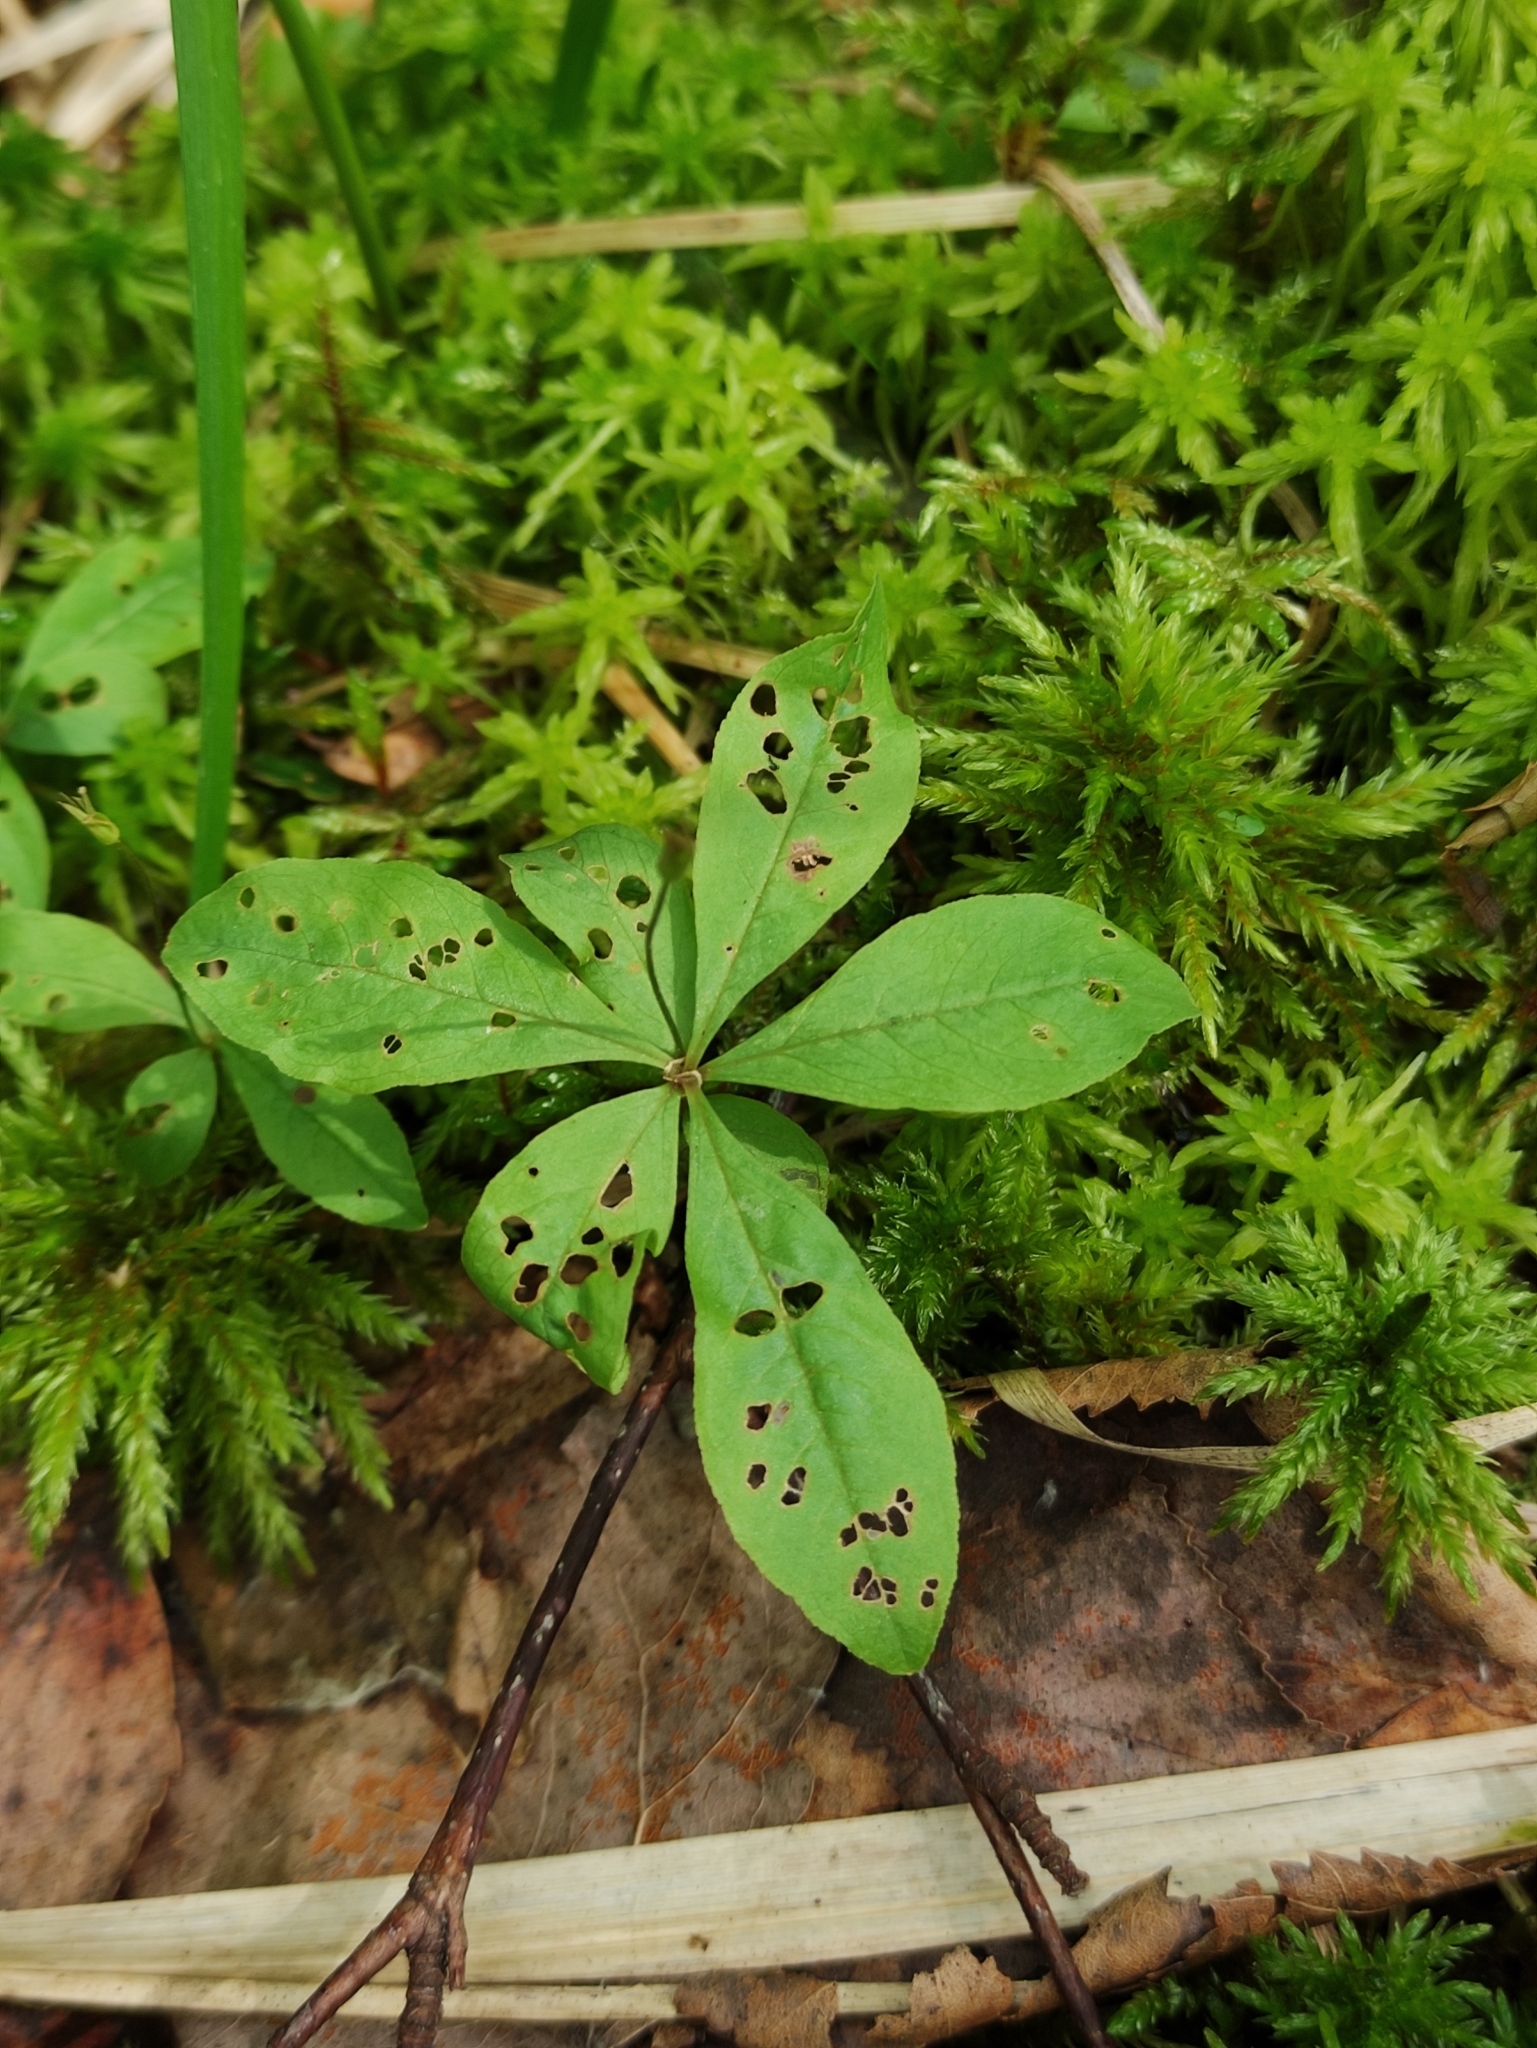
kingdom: Plantae
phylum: Tracheophyta
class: Magnoliopsida
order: Ericales
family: Primulaceae
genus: Lysimachia
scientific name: Lysimachia europaea
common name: Arctic starflower
